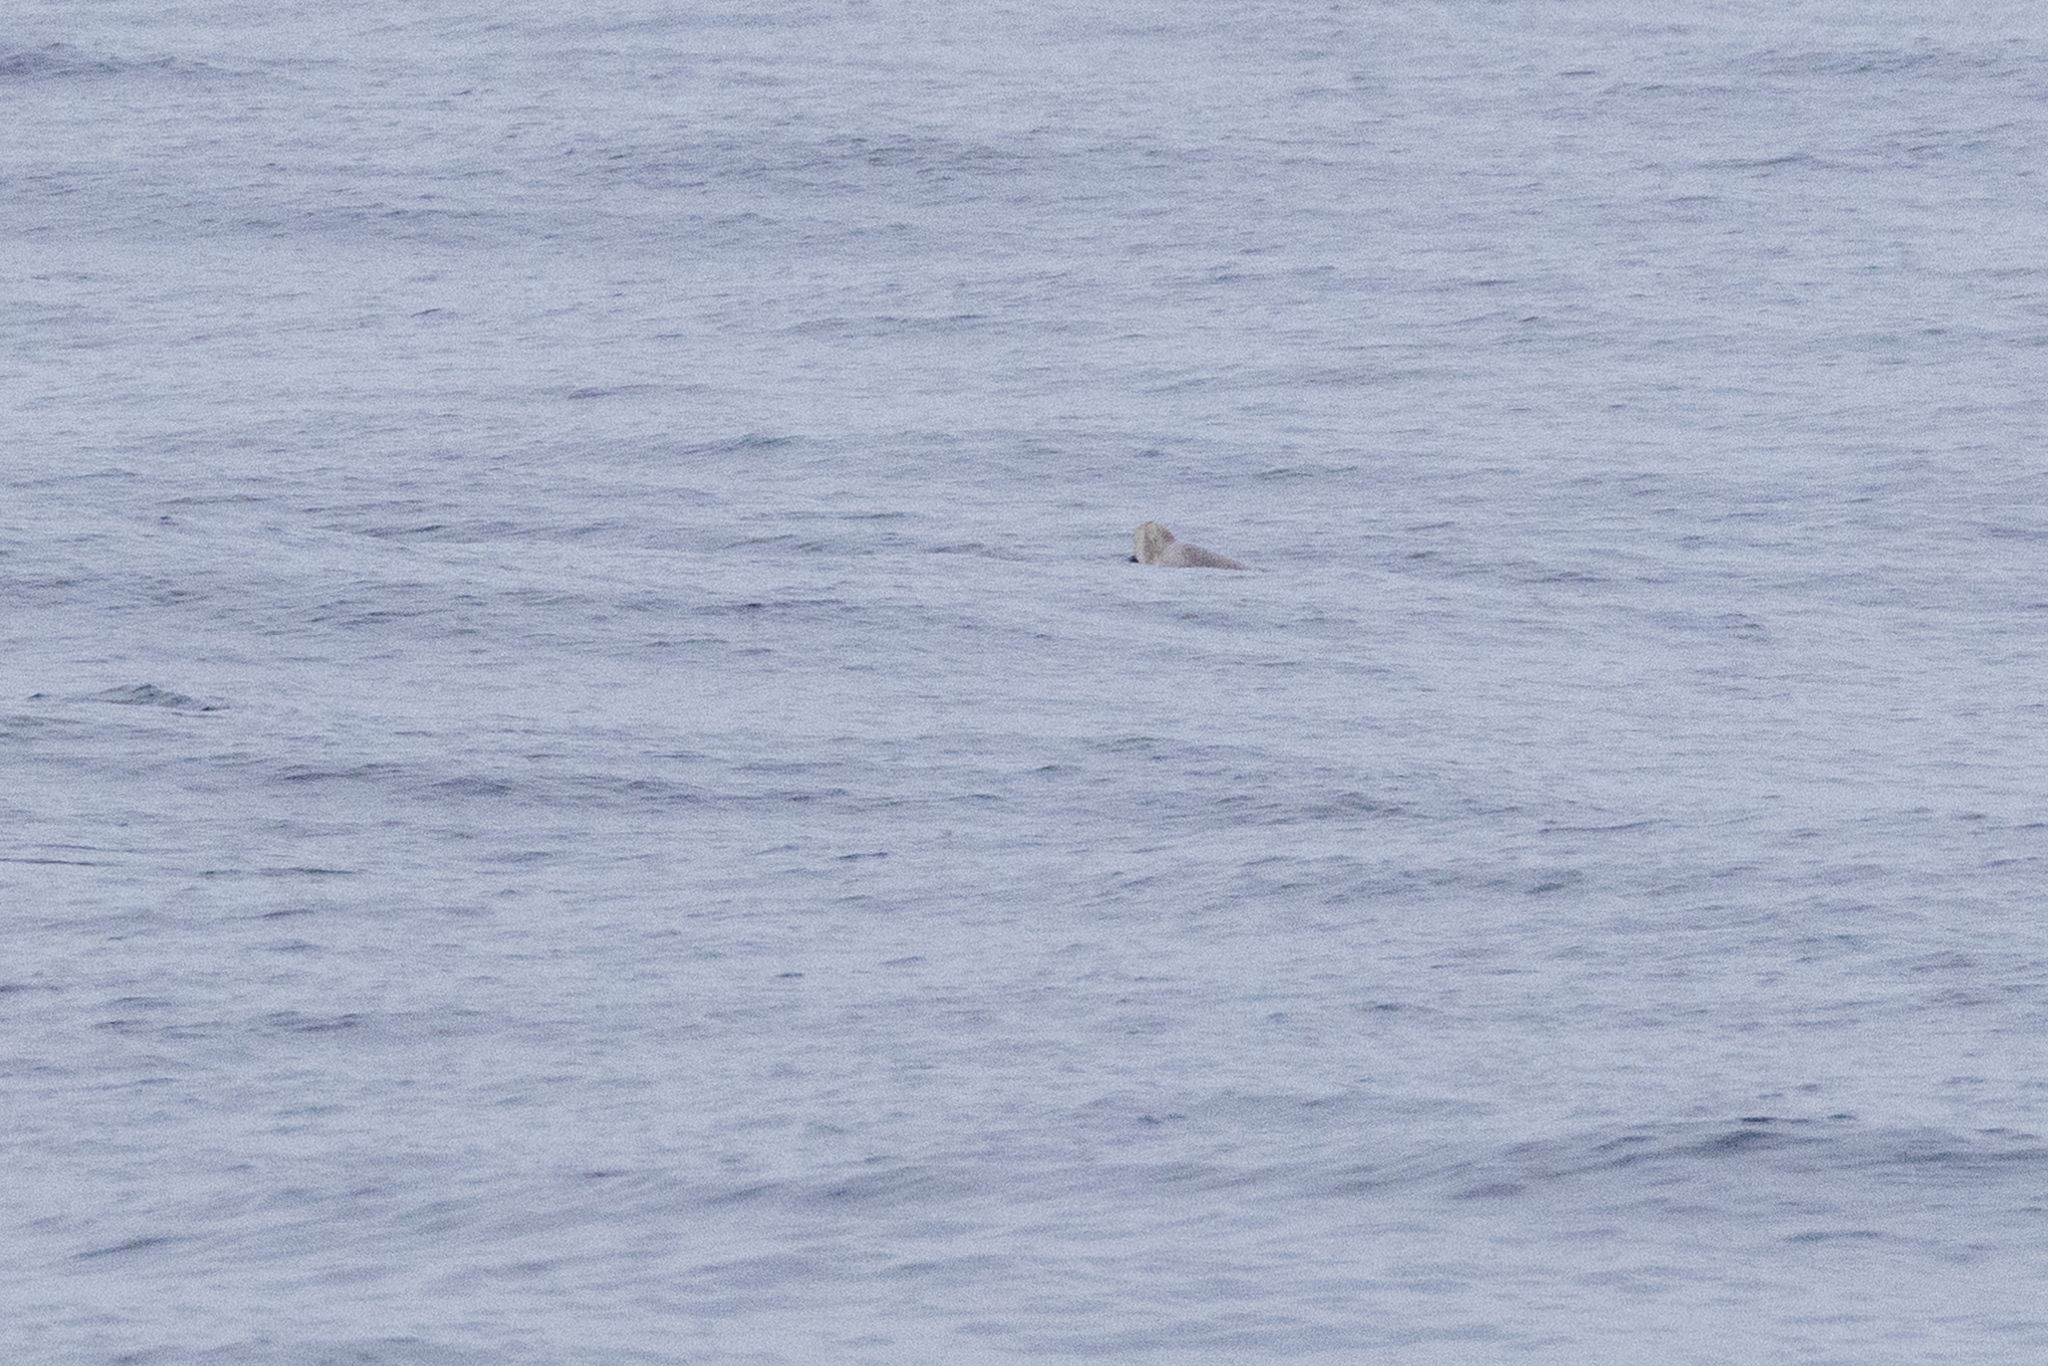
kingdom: Animalia
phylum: Chordata
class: Mammalia
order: Cetacea
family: Hyperoodontidae
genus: Ziphius
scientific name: Ziphius cavirostris
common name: Cuvier's beaked whale
